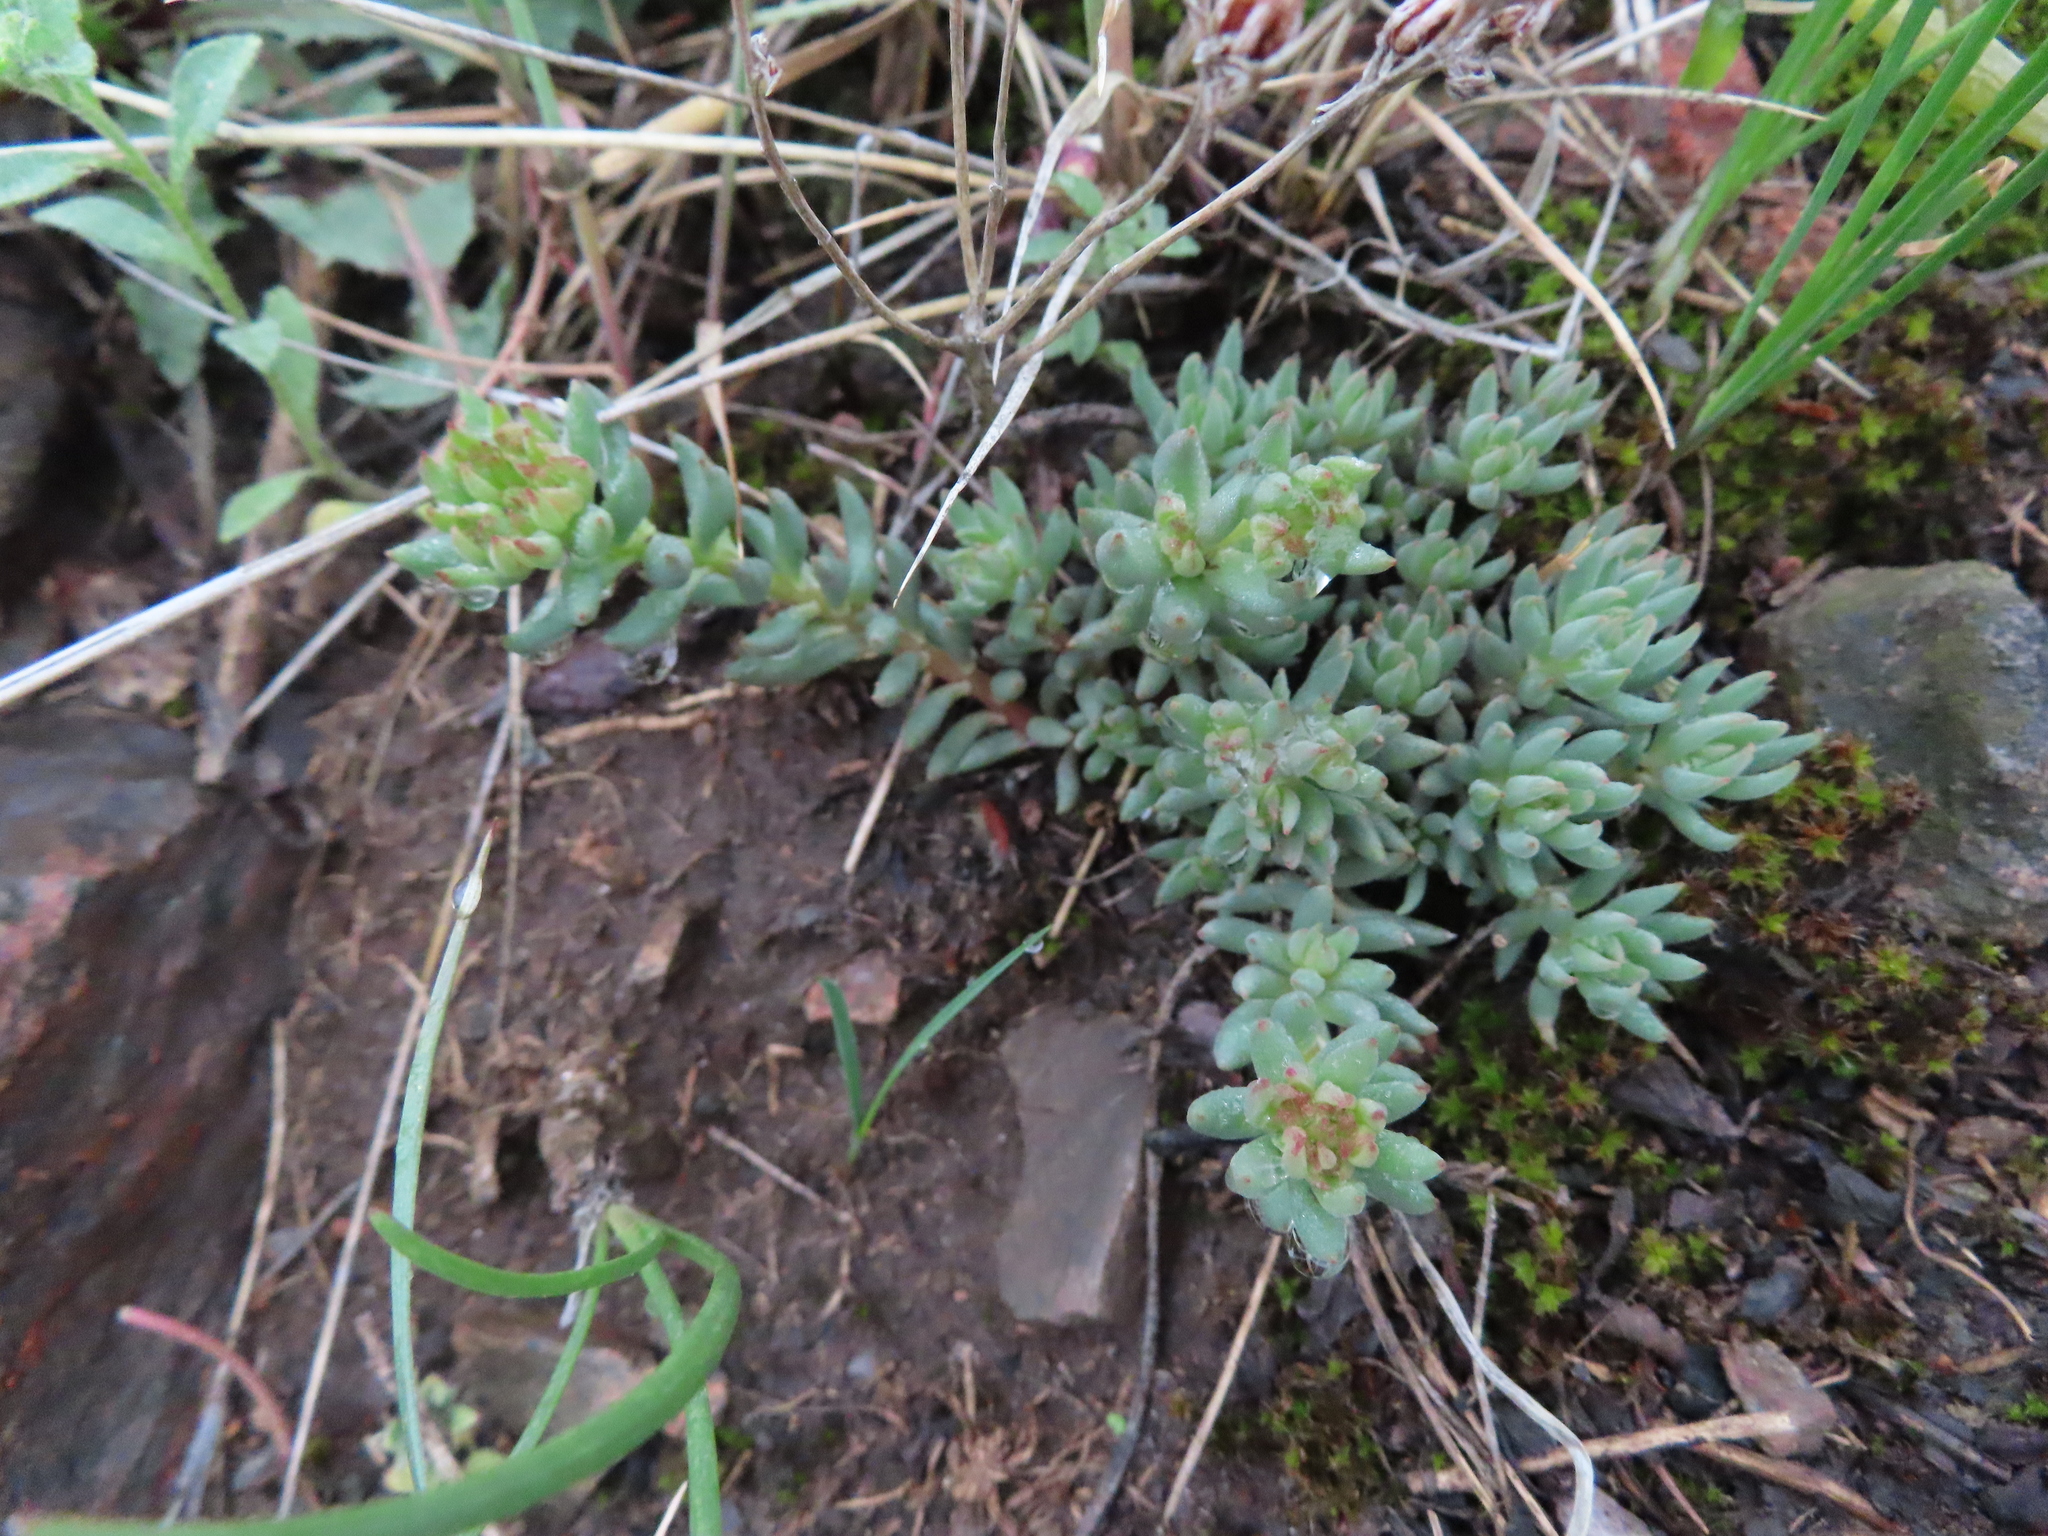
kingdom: Plantae
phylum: Tracheophyta
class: Magnoliopsida
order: Saxifragales
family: Crassulaceae
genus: Sedum
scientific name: Sedum lanceolatum
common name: Common stonecrop
